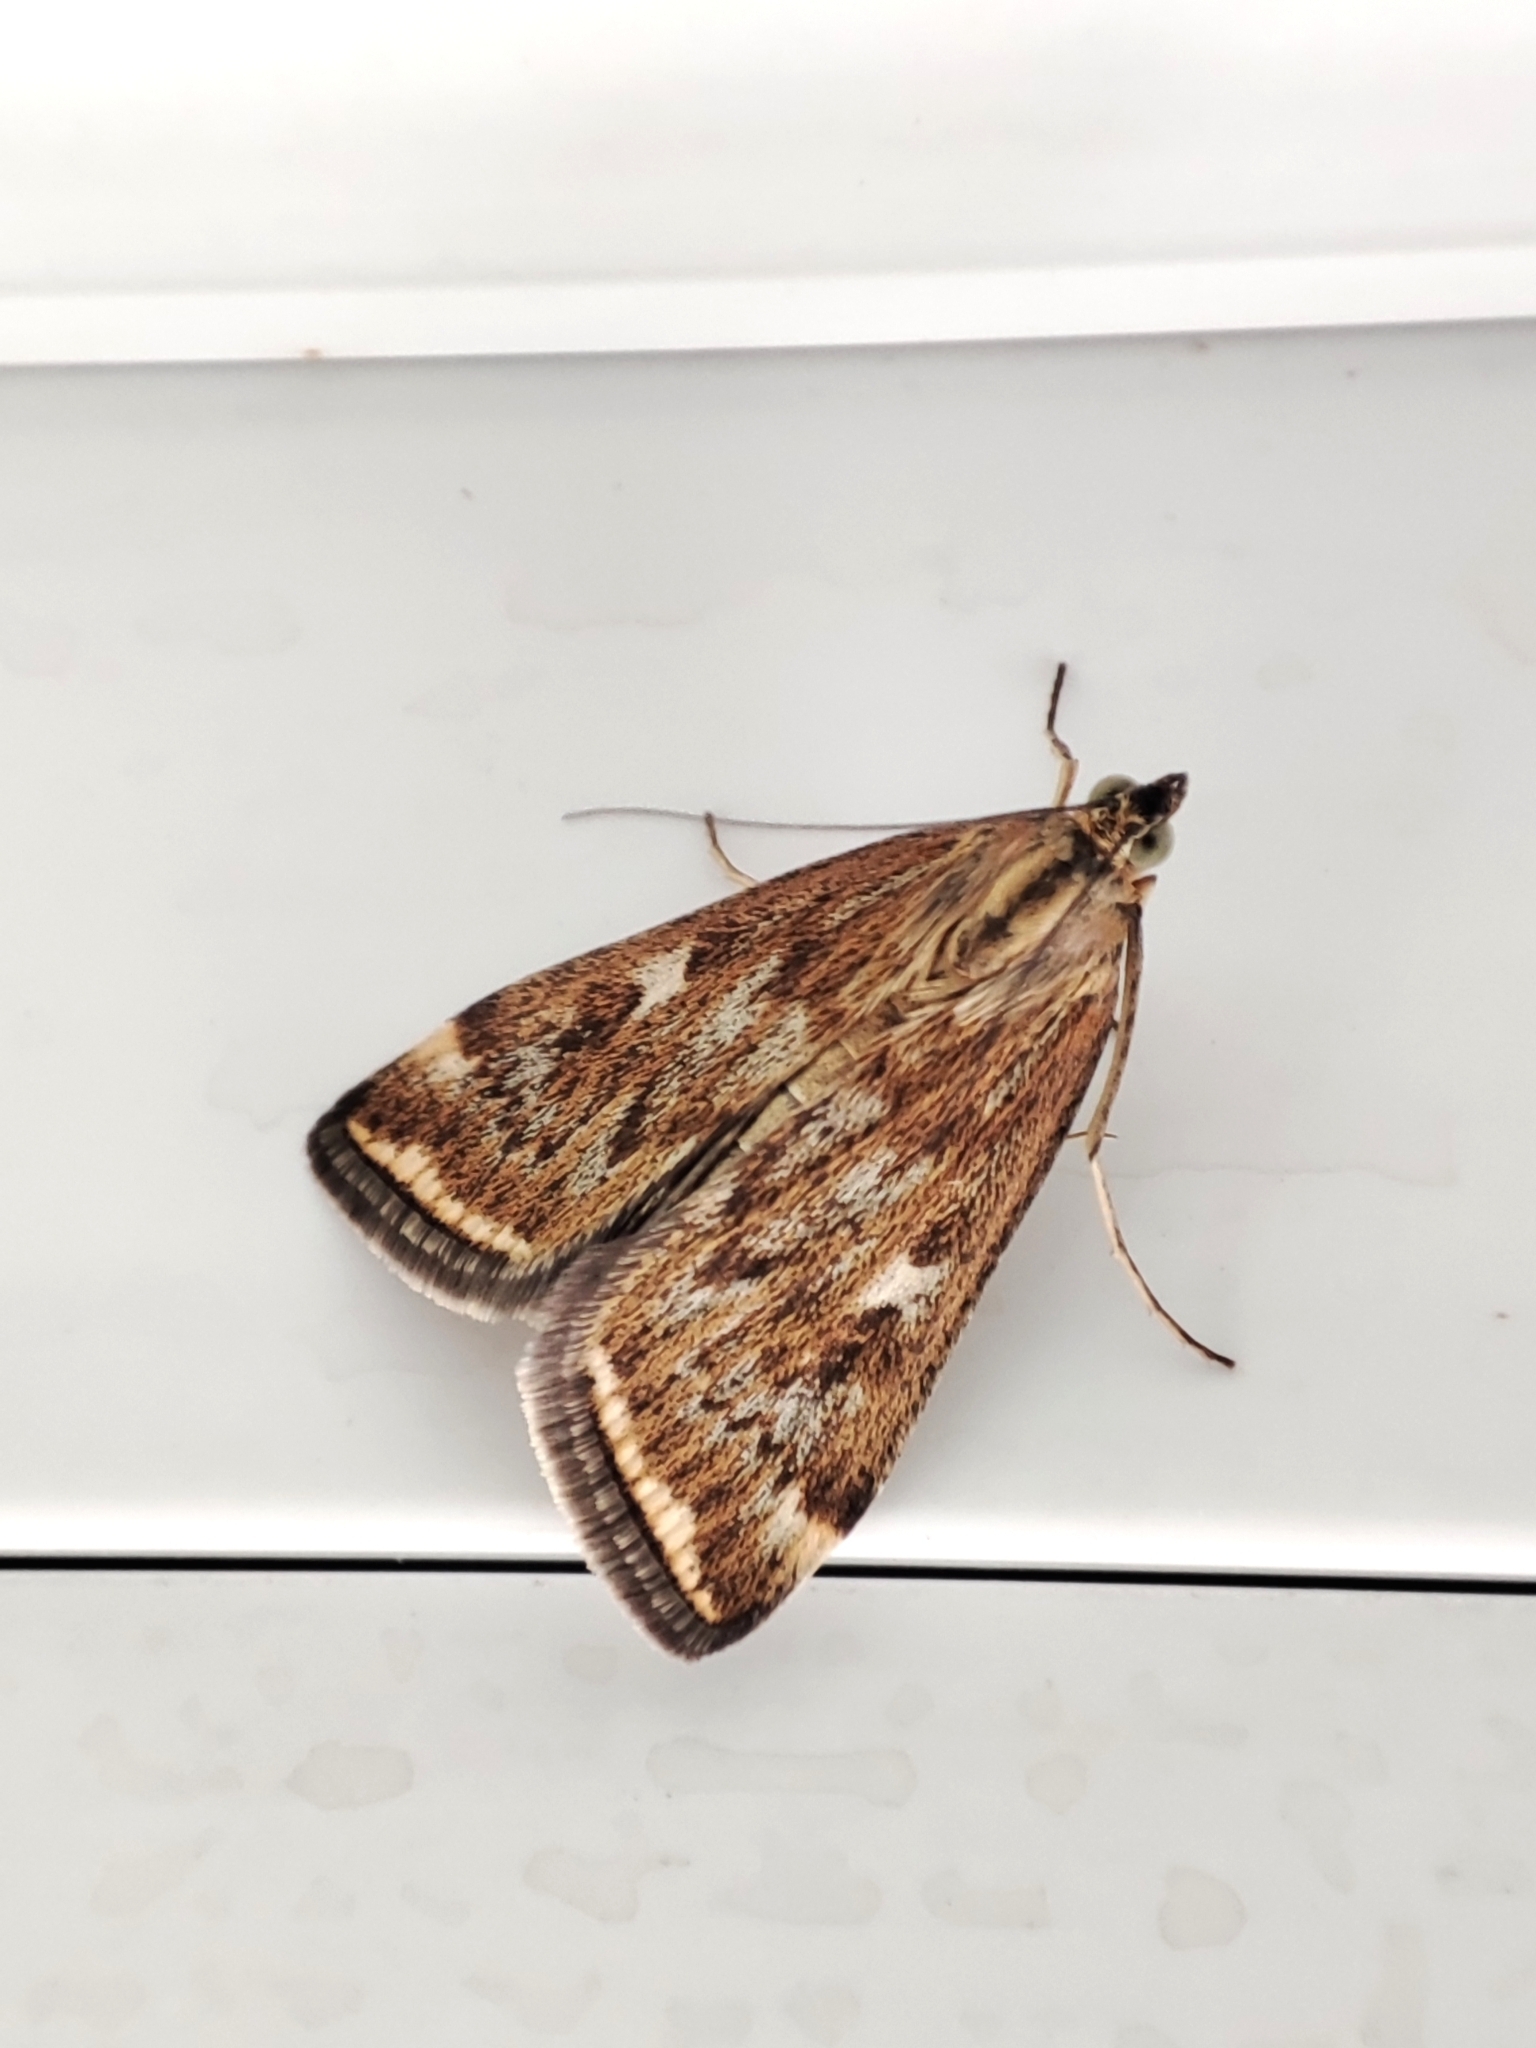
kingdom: Animalia
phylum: Arthropoda
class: Insecta
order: Lepidoptera
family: Crambidae
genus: Loxostege
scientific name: Loxostege sticticalis
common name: Crambid moth
